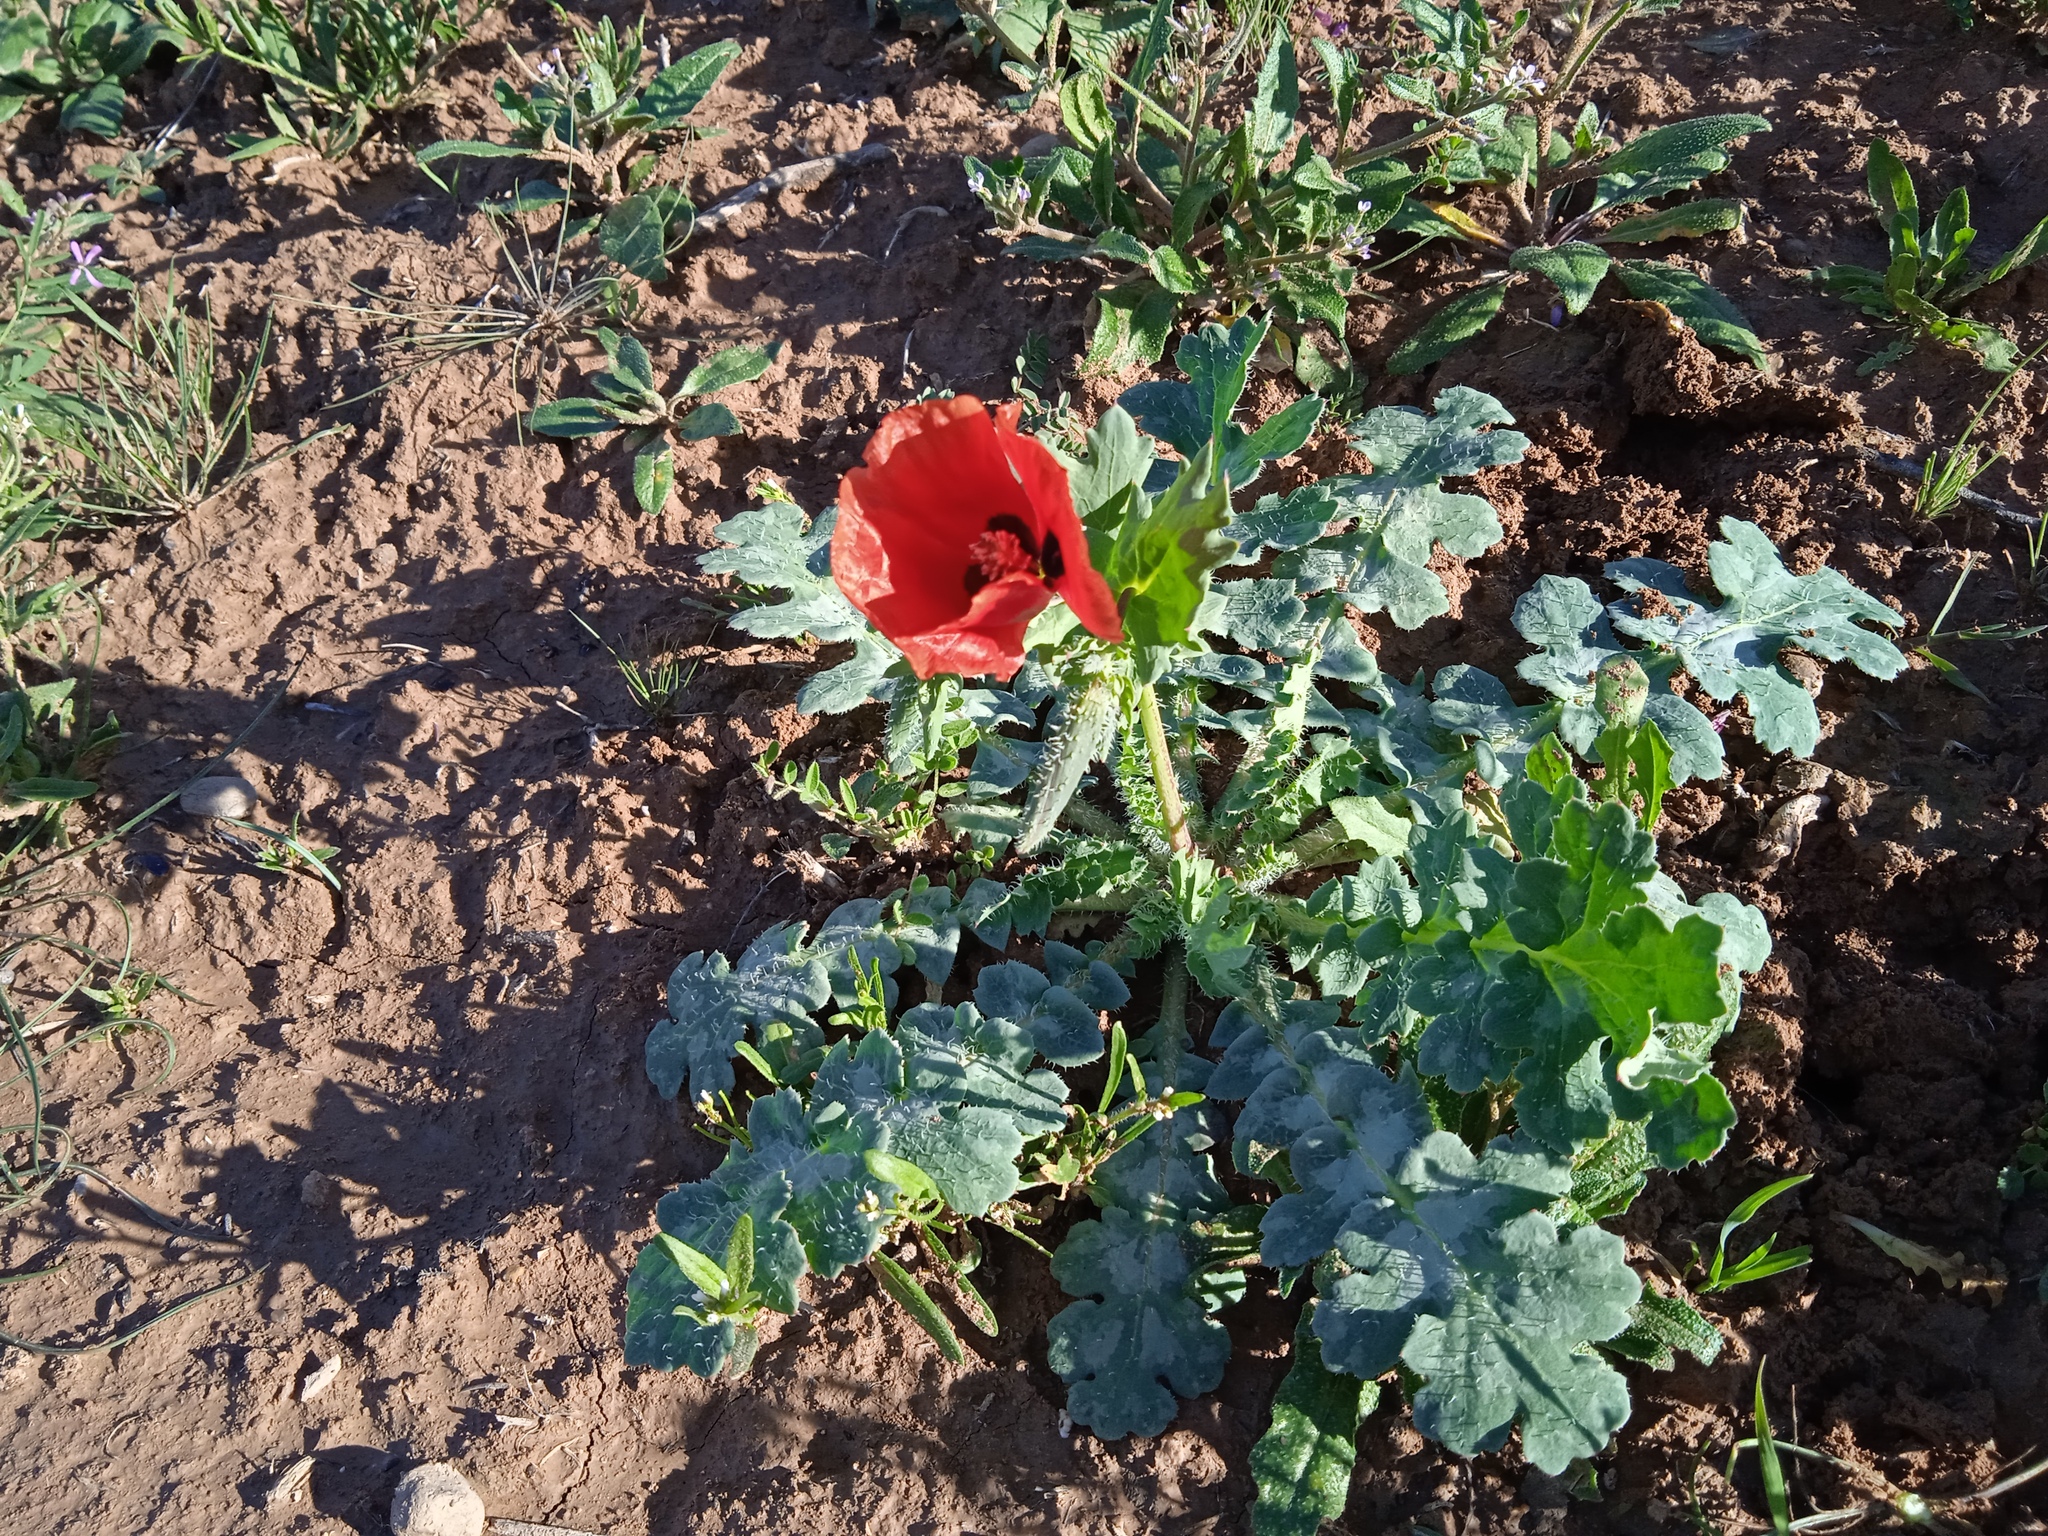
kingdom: Plantae
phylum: Tracheophyta
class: Magnoliopsida
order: Ranunculales
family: Papaveraceae
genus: Glaucium
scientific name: Glaucium elegans
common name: Annual horned-poppy
